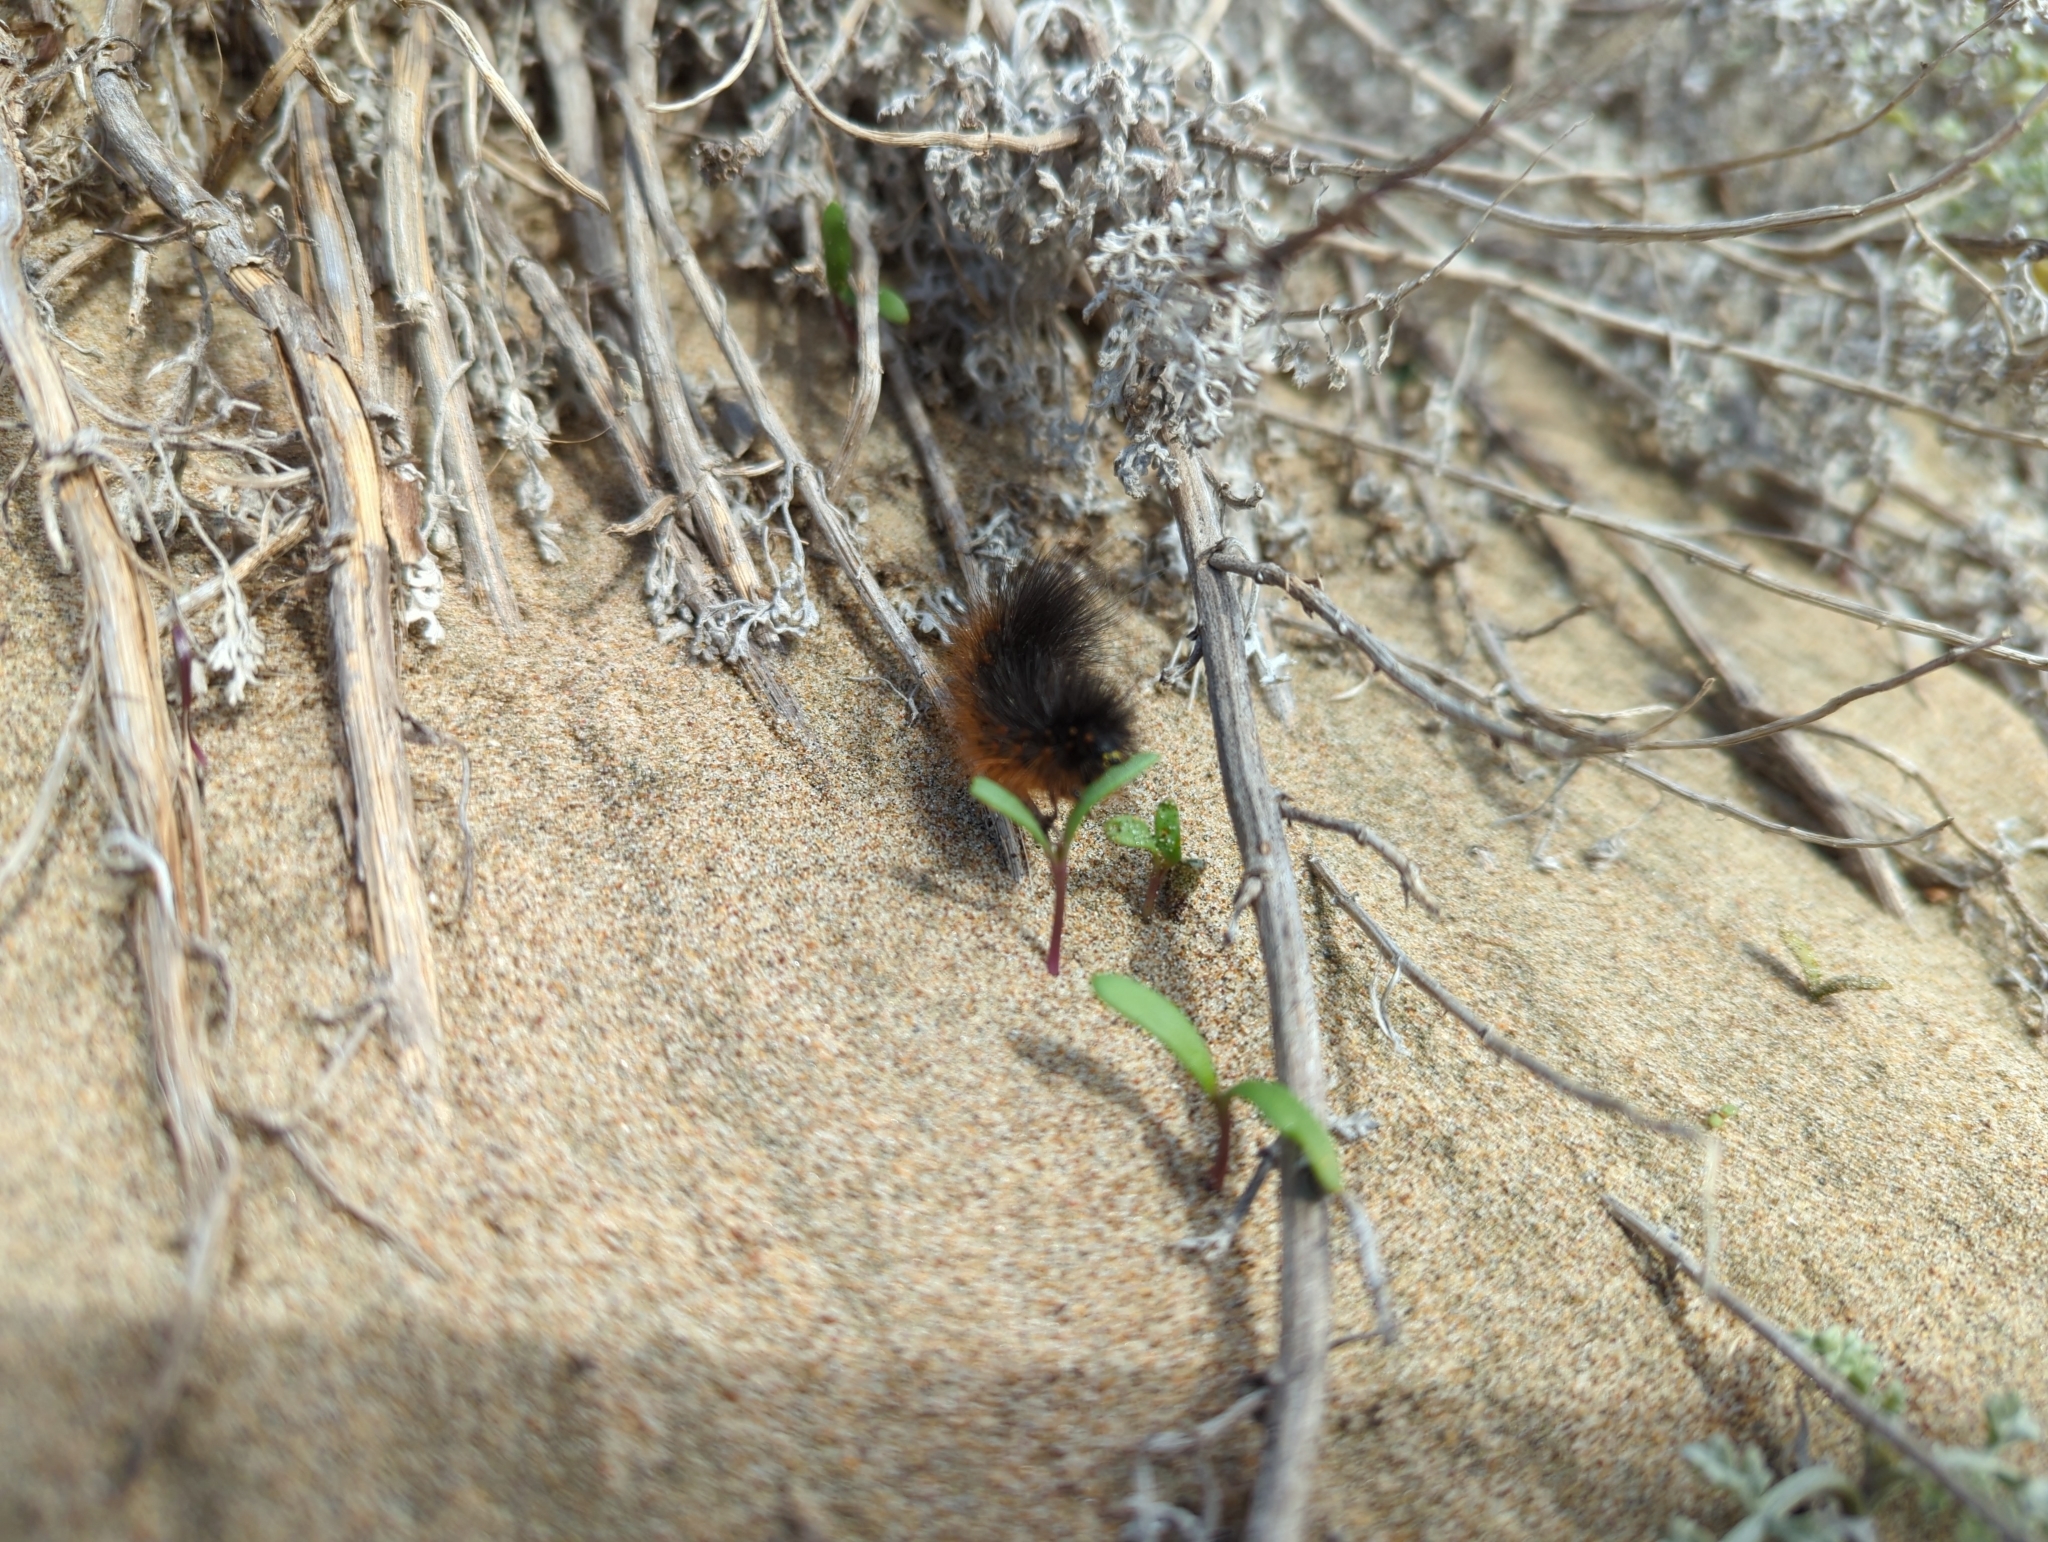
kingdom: Animalia
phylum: Arthropoda
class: Insecta
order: Lepidoptera
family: Erebidae
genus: Estigmene
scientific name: Estigmene acrea
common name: Salt marsh moth
